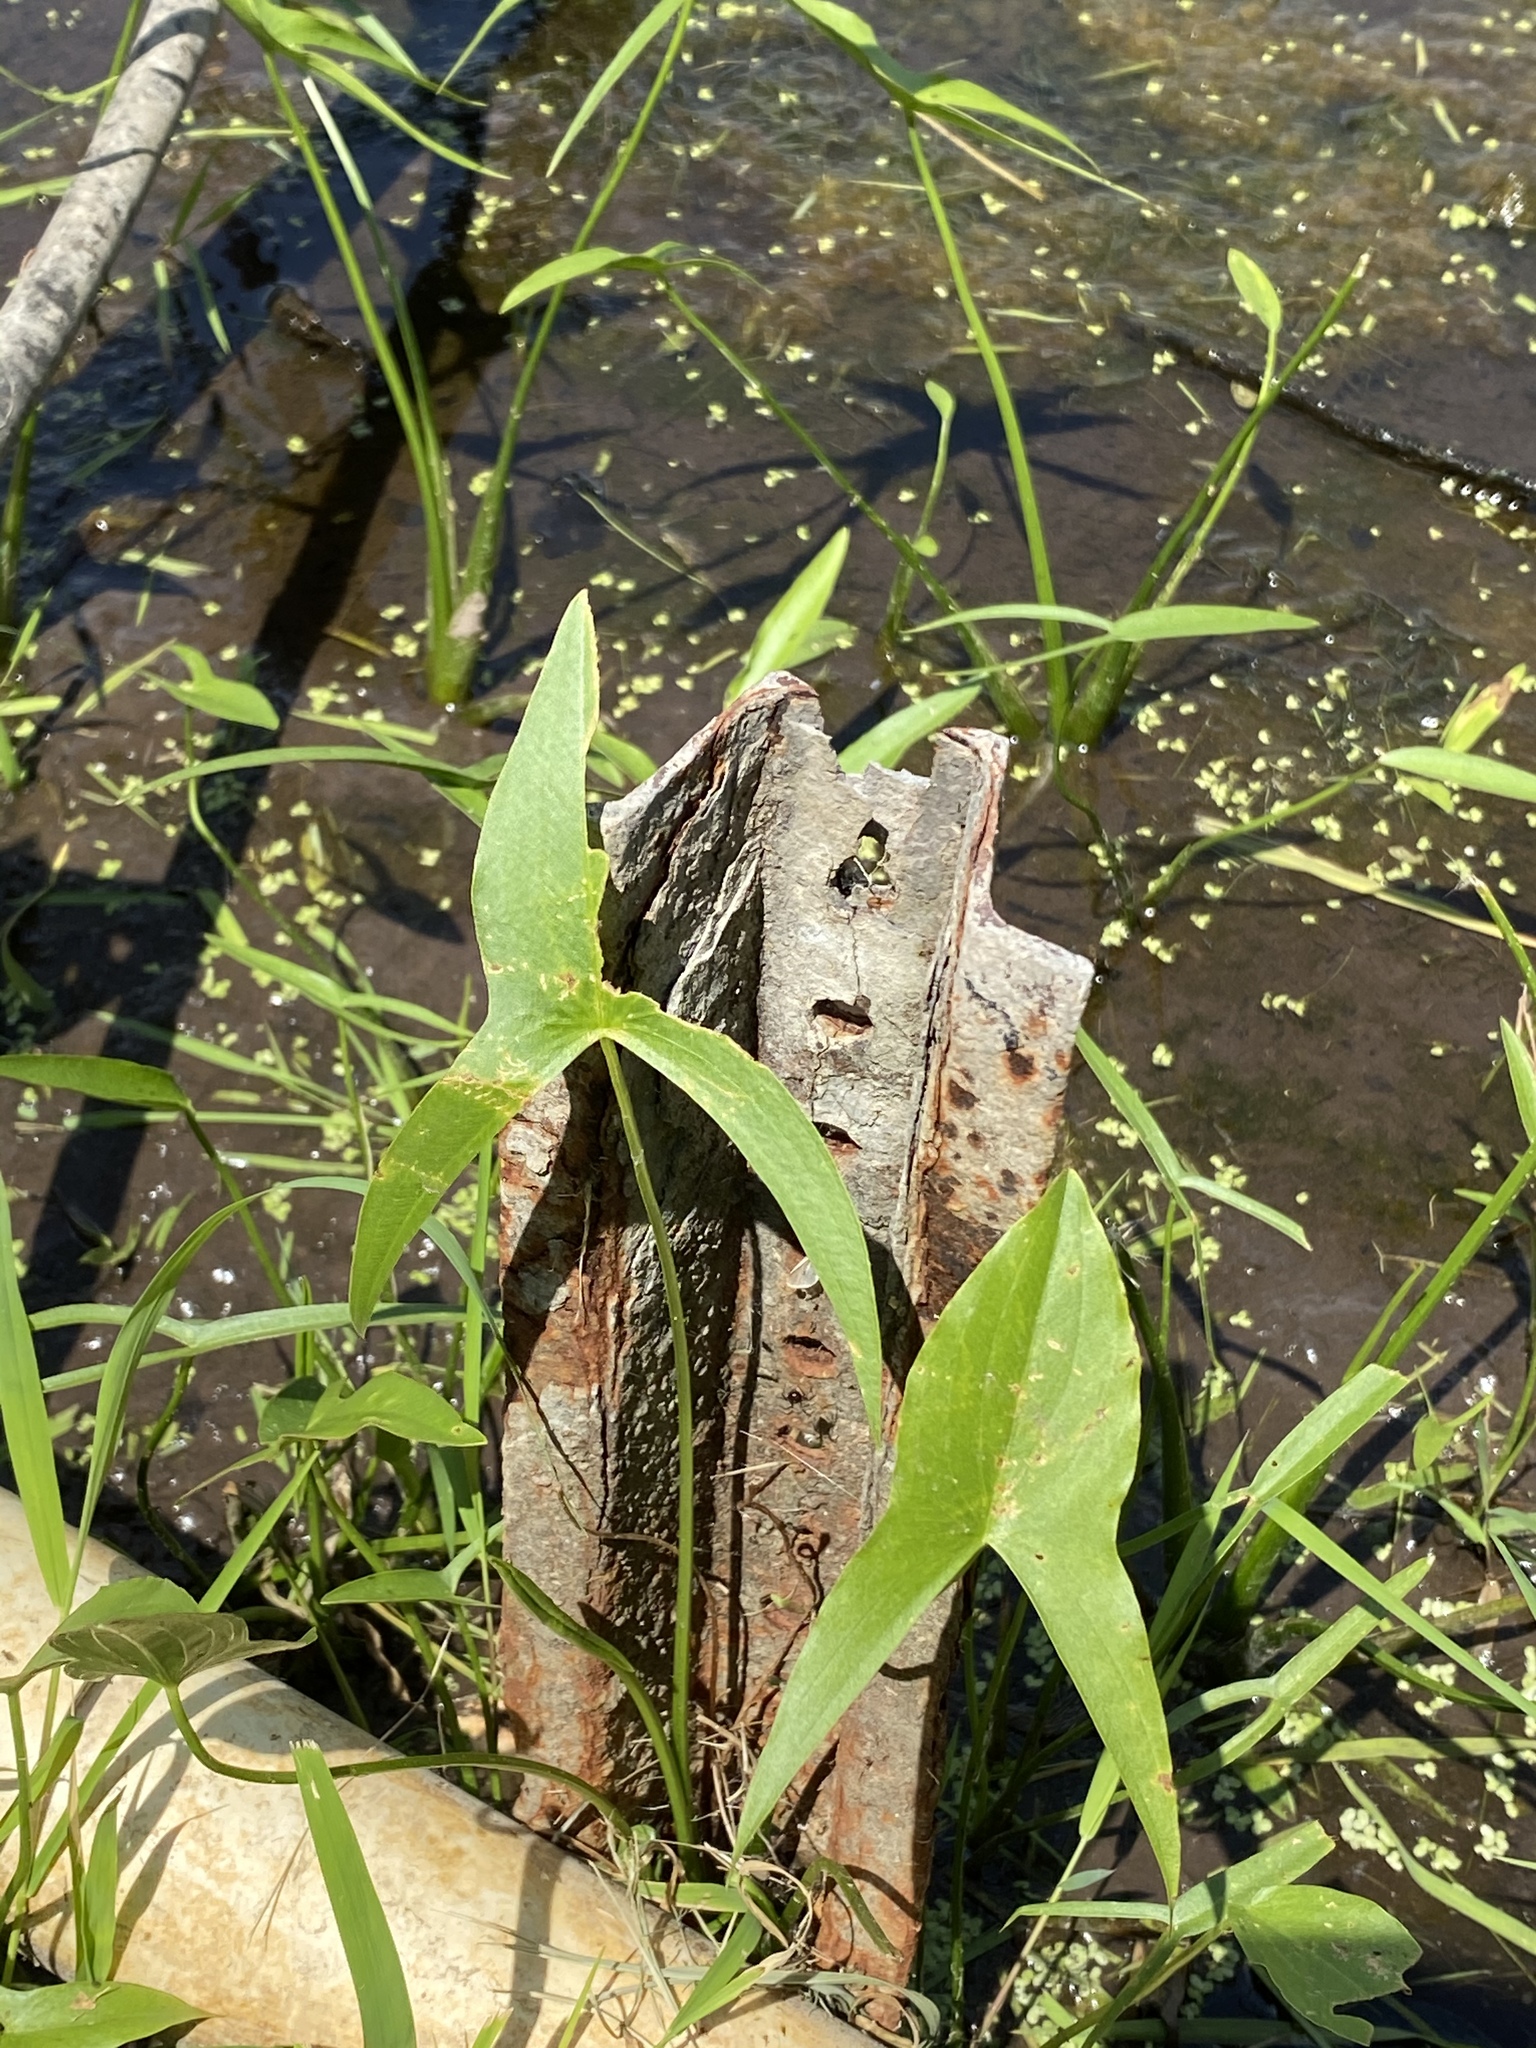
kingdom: Plantae
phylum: Tracheophyta
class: Liliopsida
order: Alismatales
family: Alismataceae
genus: Sagittaria
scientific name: Sagittaria latifolia
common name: Duck-potato
